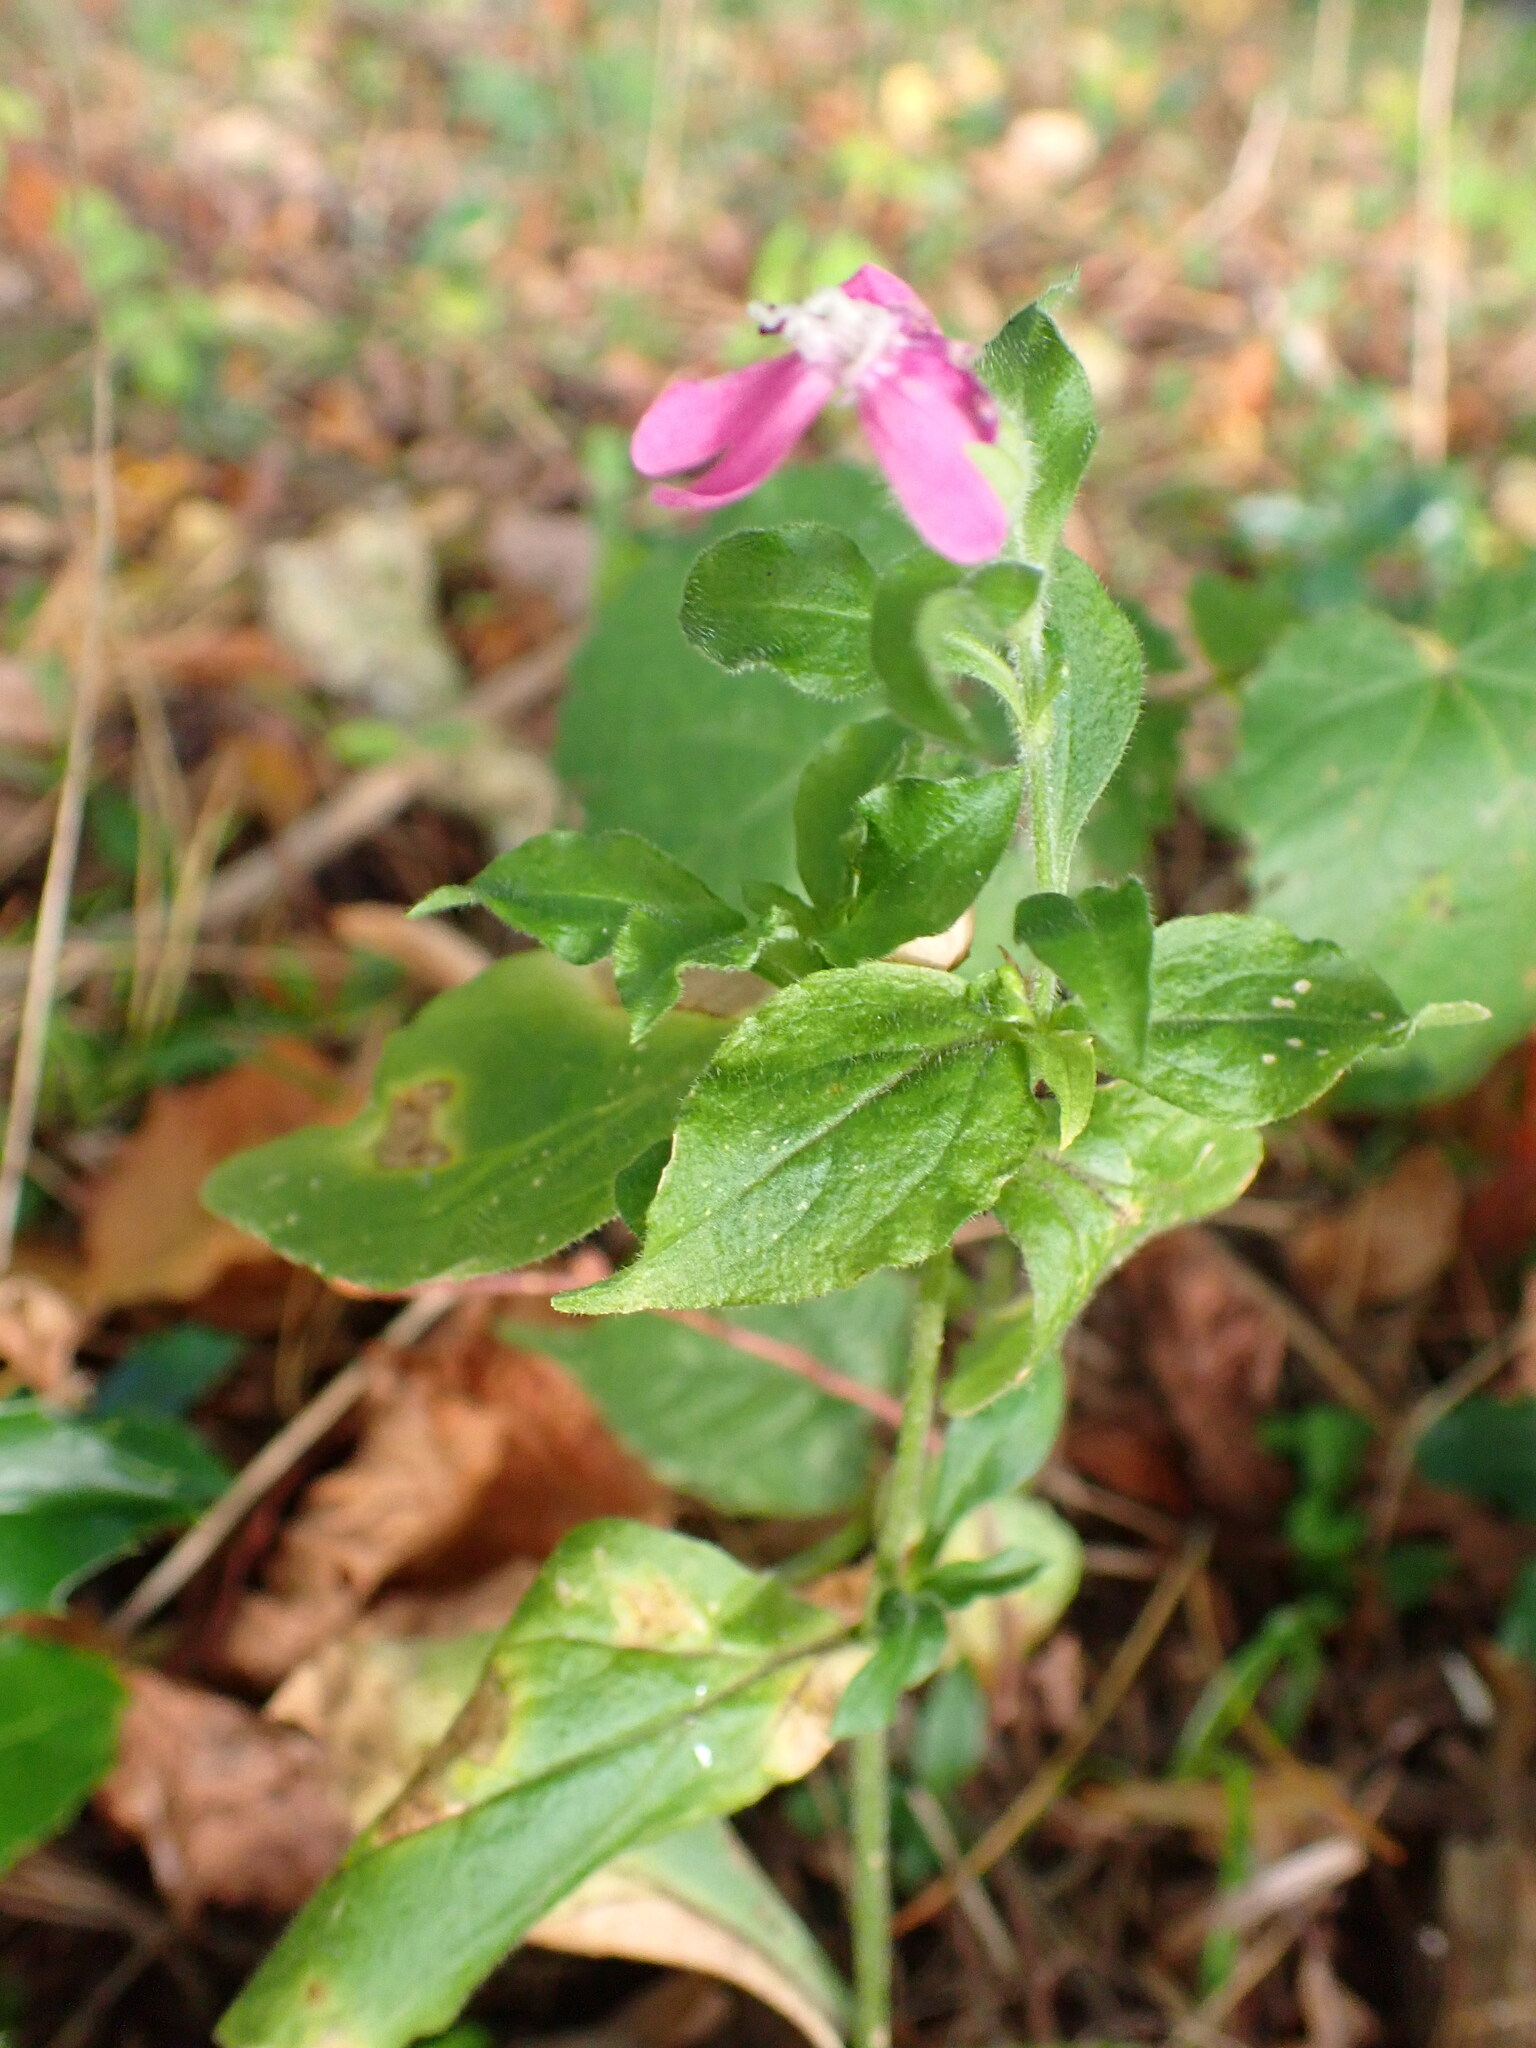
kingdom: Plantae
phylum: Tracheophyta
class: Magnoliopsida
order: Caryophyllales
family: Caryophyllaceae
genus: Silene
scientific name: Silene dioica
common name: Red campion
